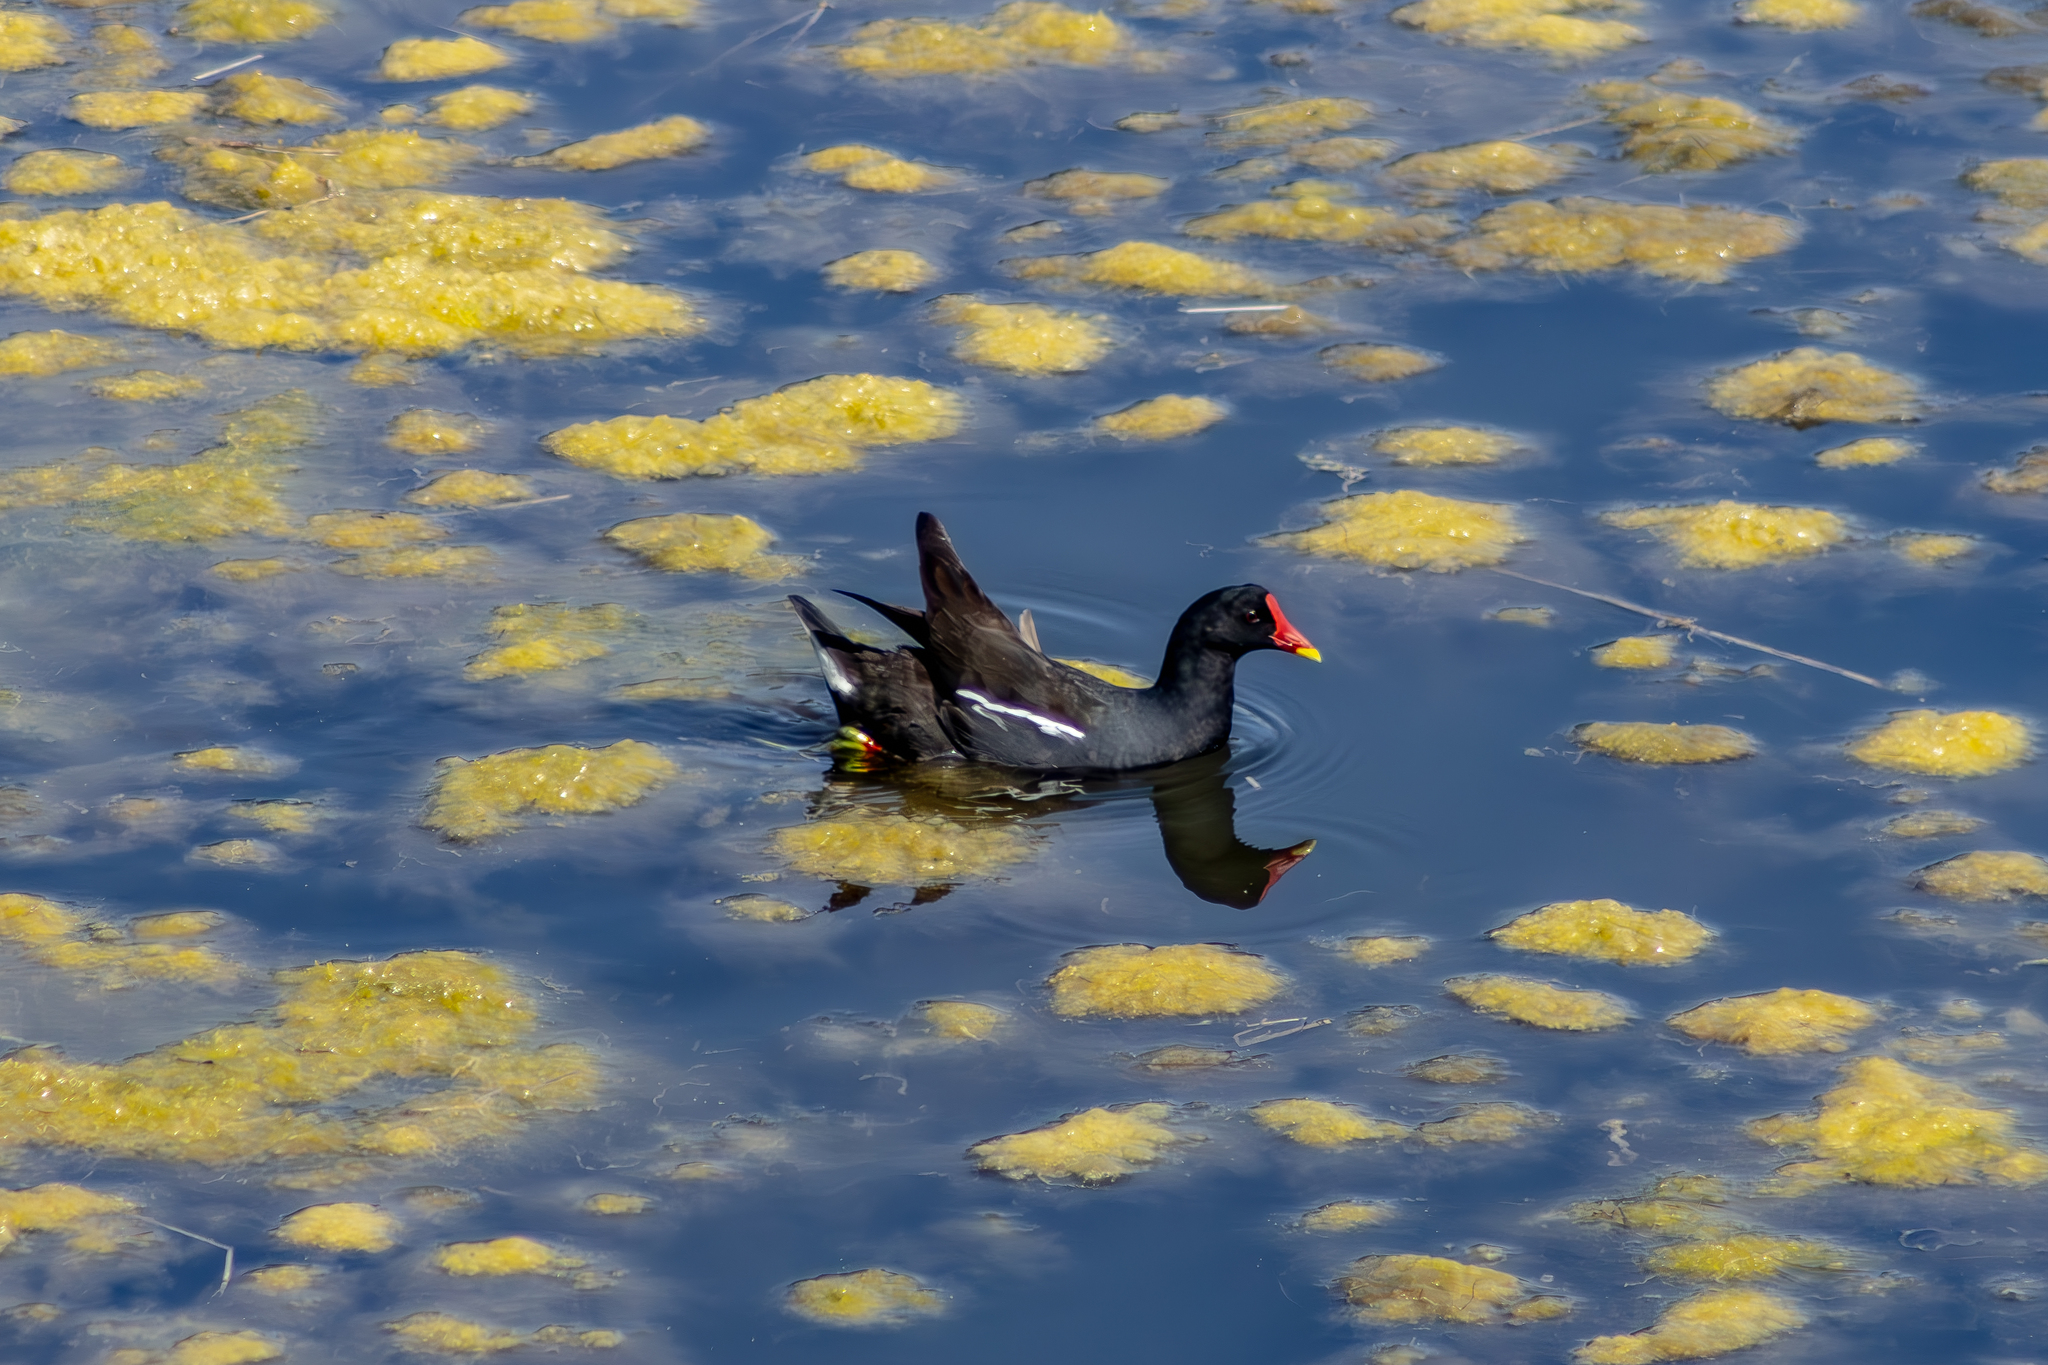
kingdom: Animalia
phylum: Chordata
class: Aves
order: Gruiformes
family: Rallidae
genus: Gallinula
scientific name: Gallinula chloropus
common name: Common moorhen
